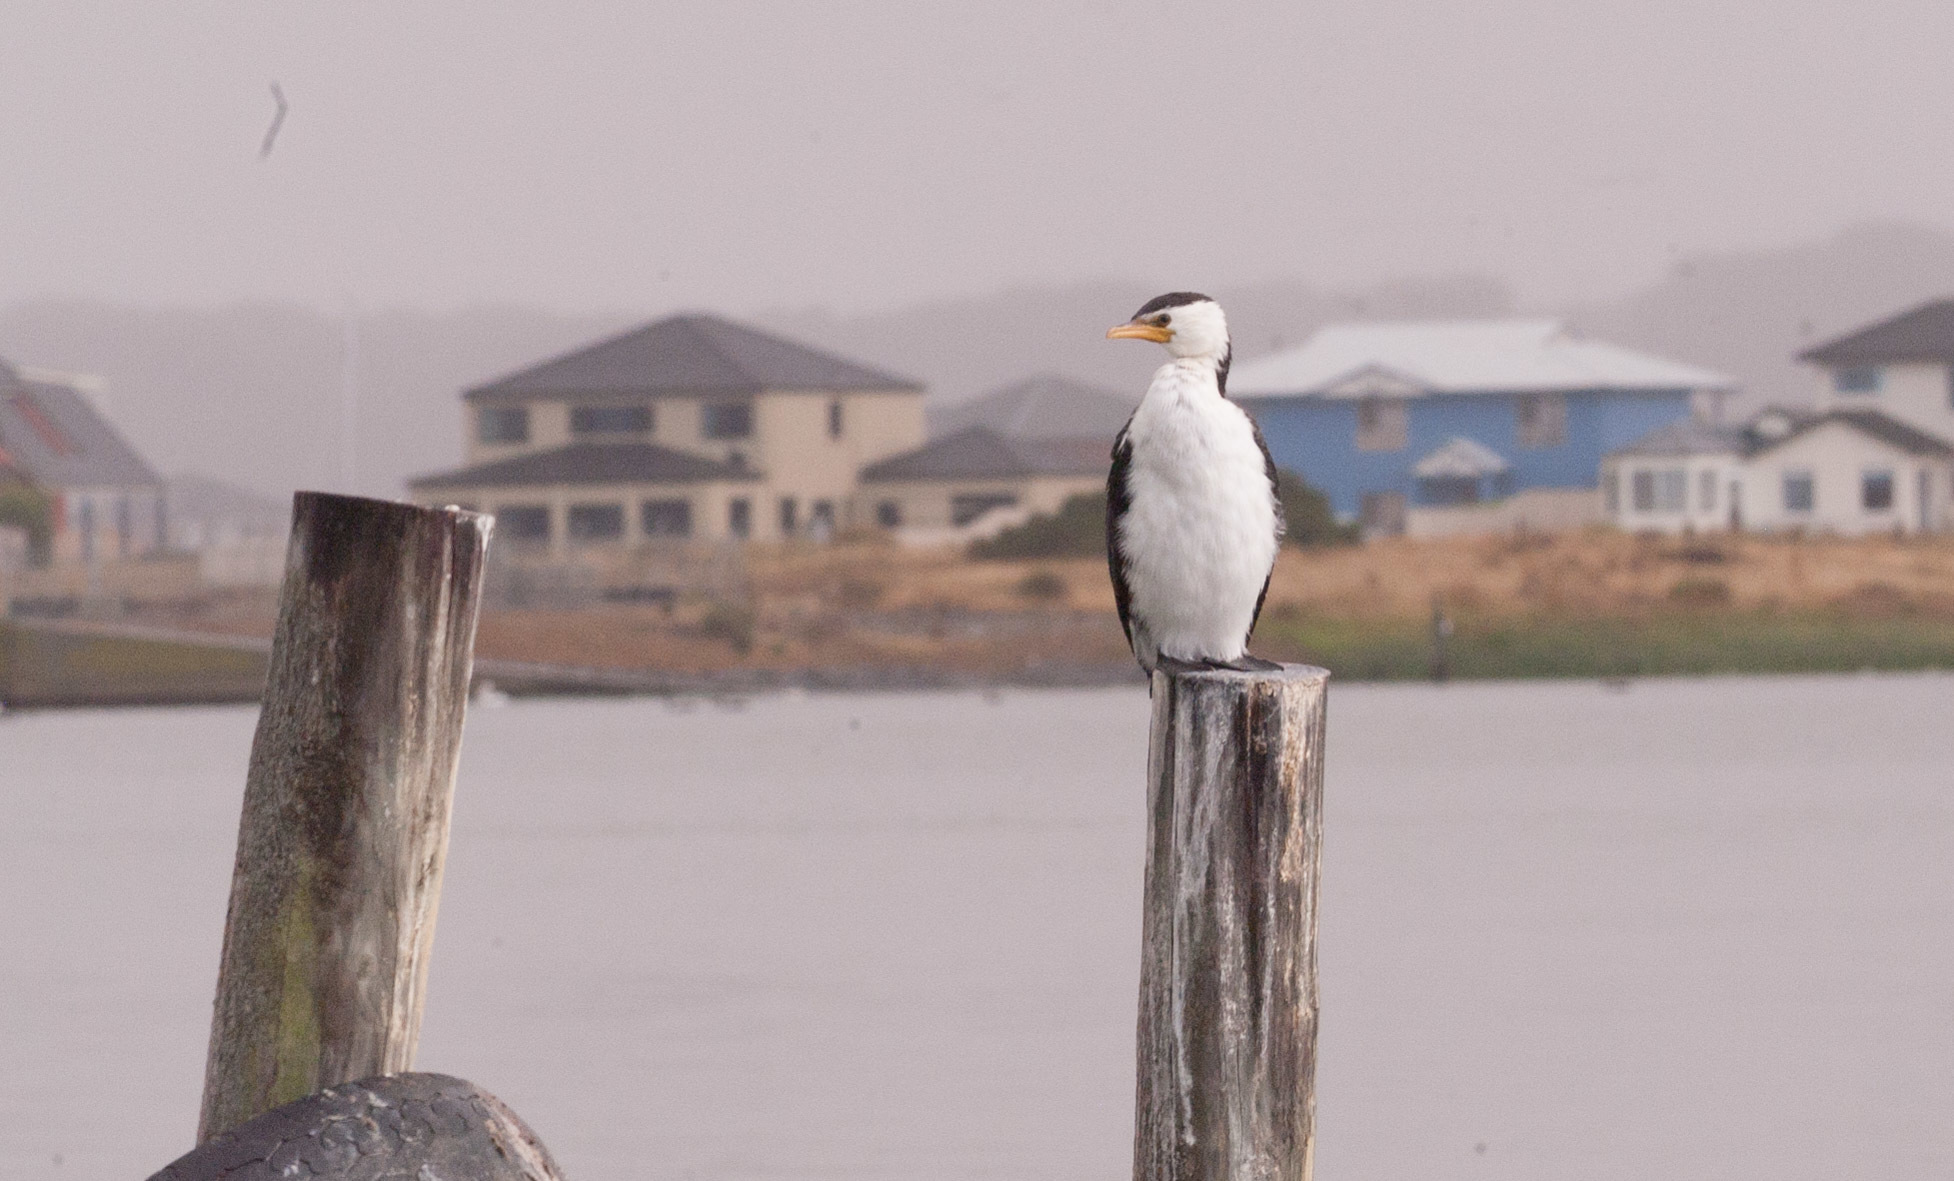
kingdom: Animalia
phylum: Chordata
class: Aves
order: Suliformes
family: Phalacrocoracidae
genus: Microcarbo
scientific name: Microcarbo melanoleucos
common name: Little pied cormorant
